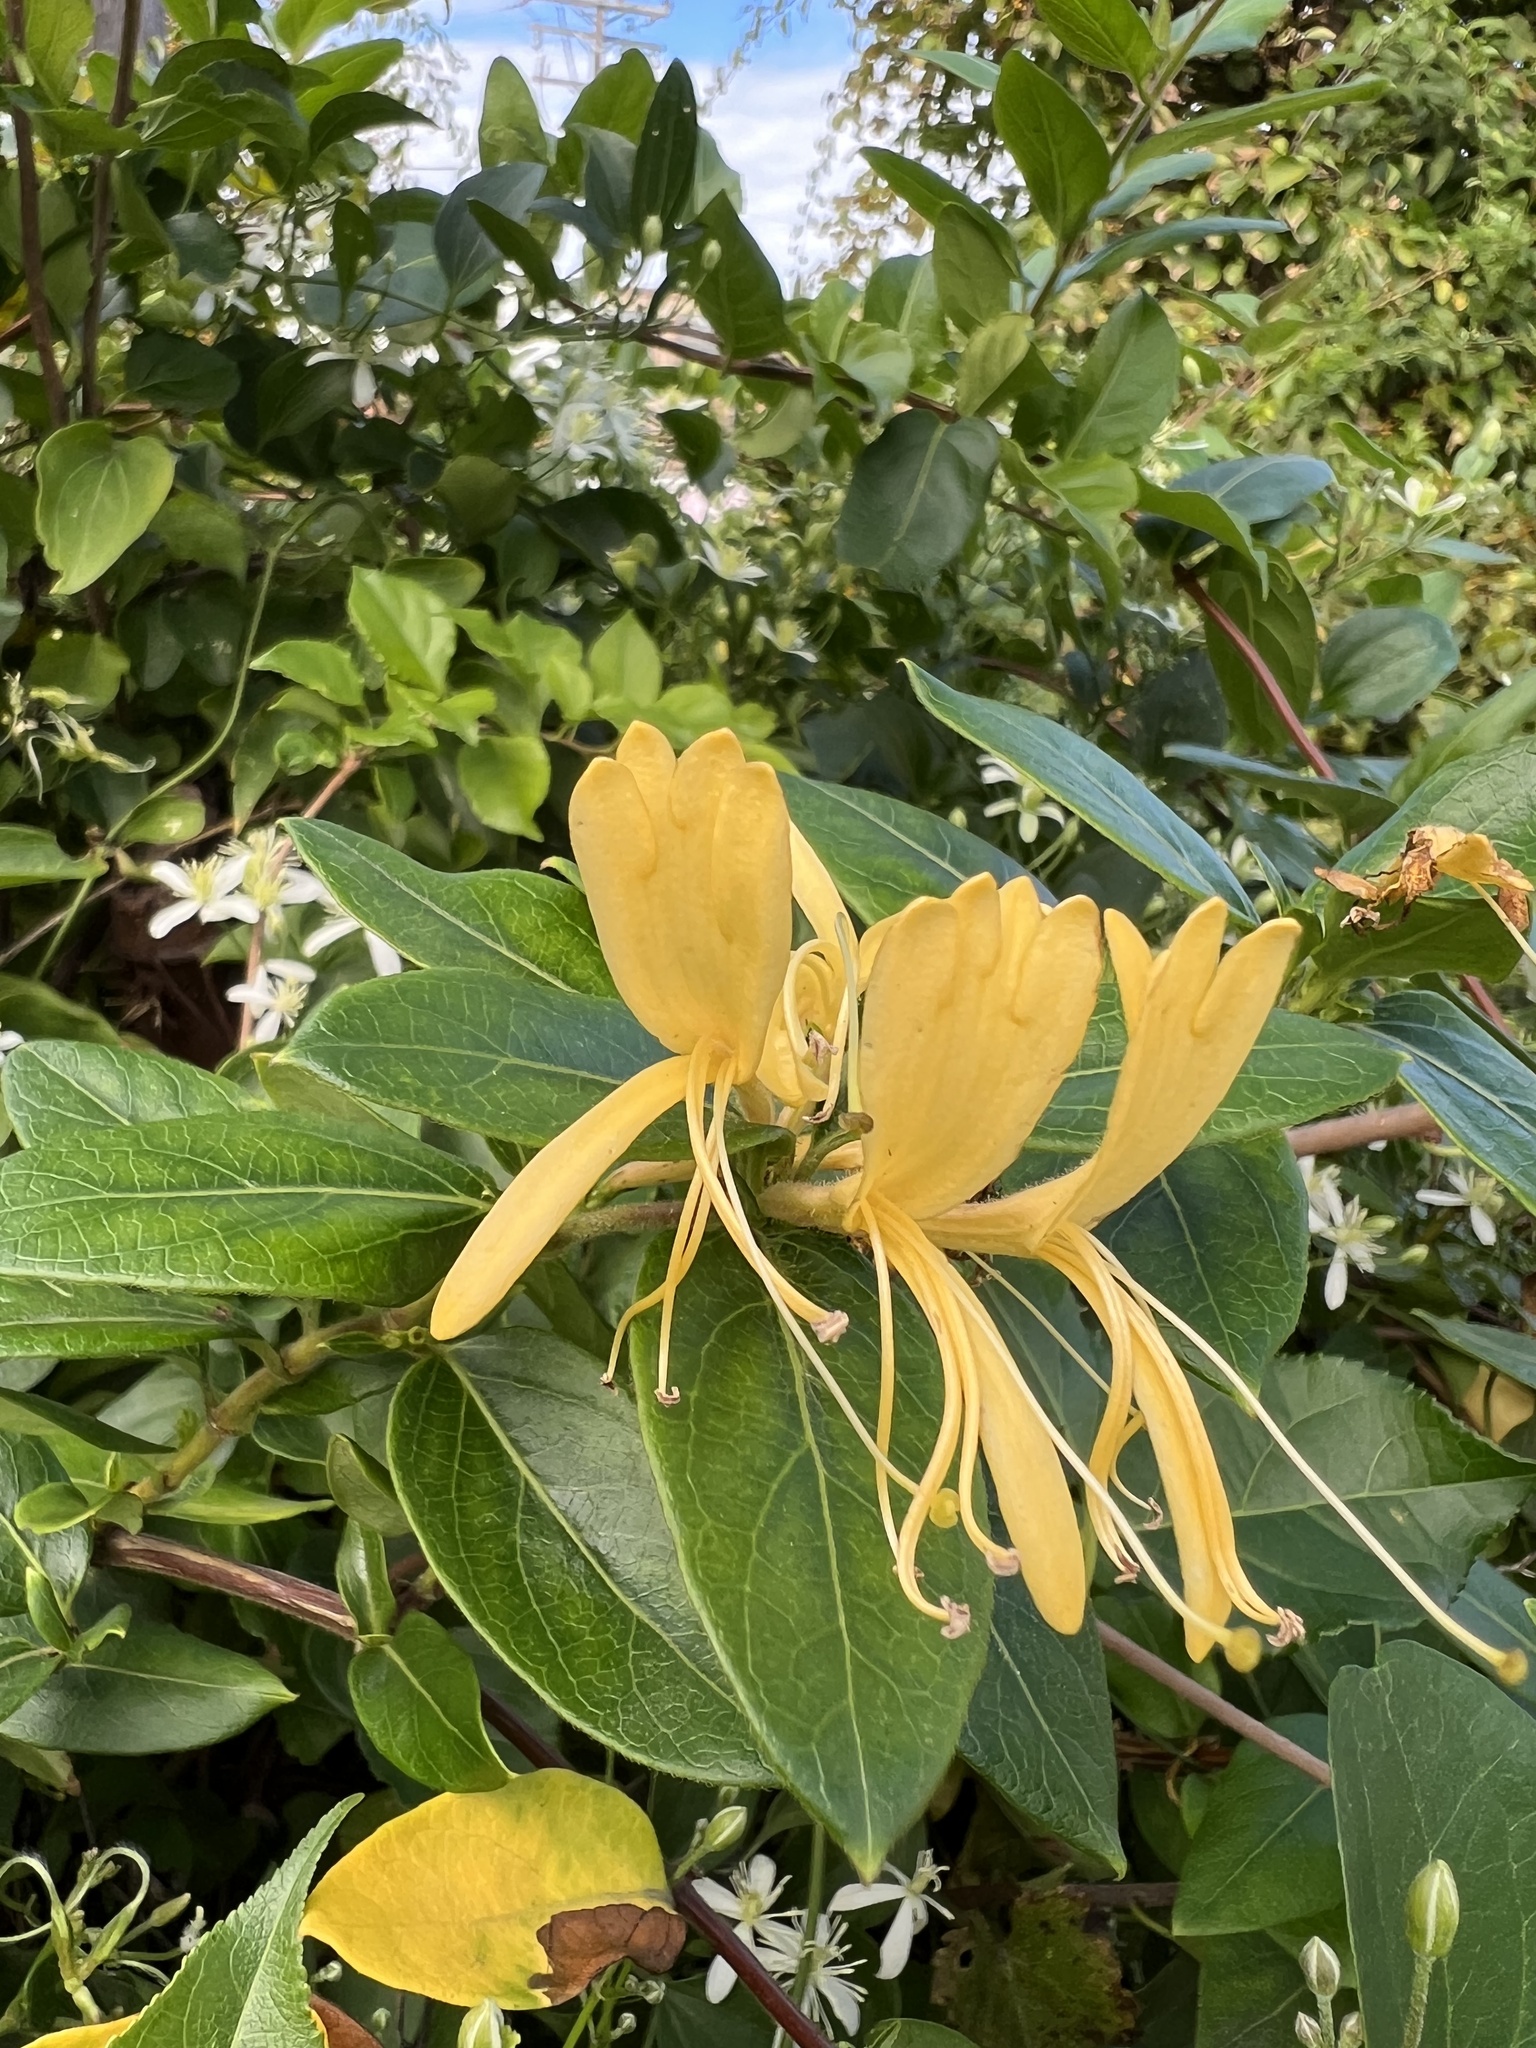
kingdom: Plantae
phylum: Tracheophyta
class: Magnoliopsida
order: Dipsacales
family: Caprifoliaceae
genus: Lonicera
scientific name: Lonicera japonica
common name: Japanese honeysuckle
